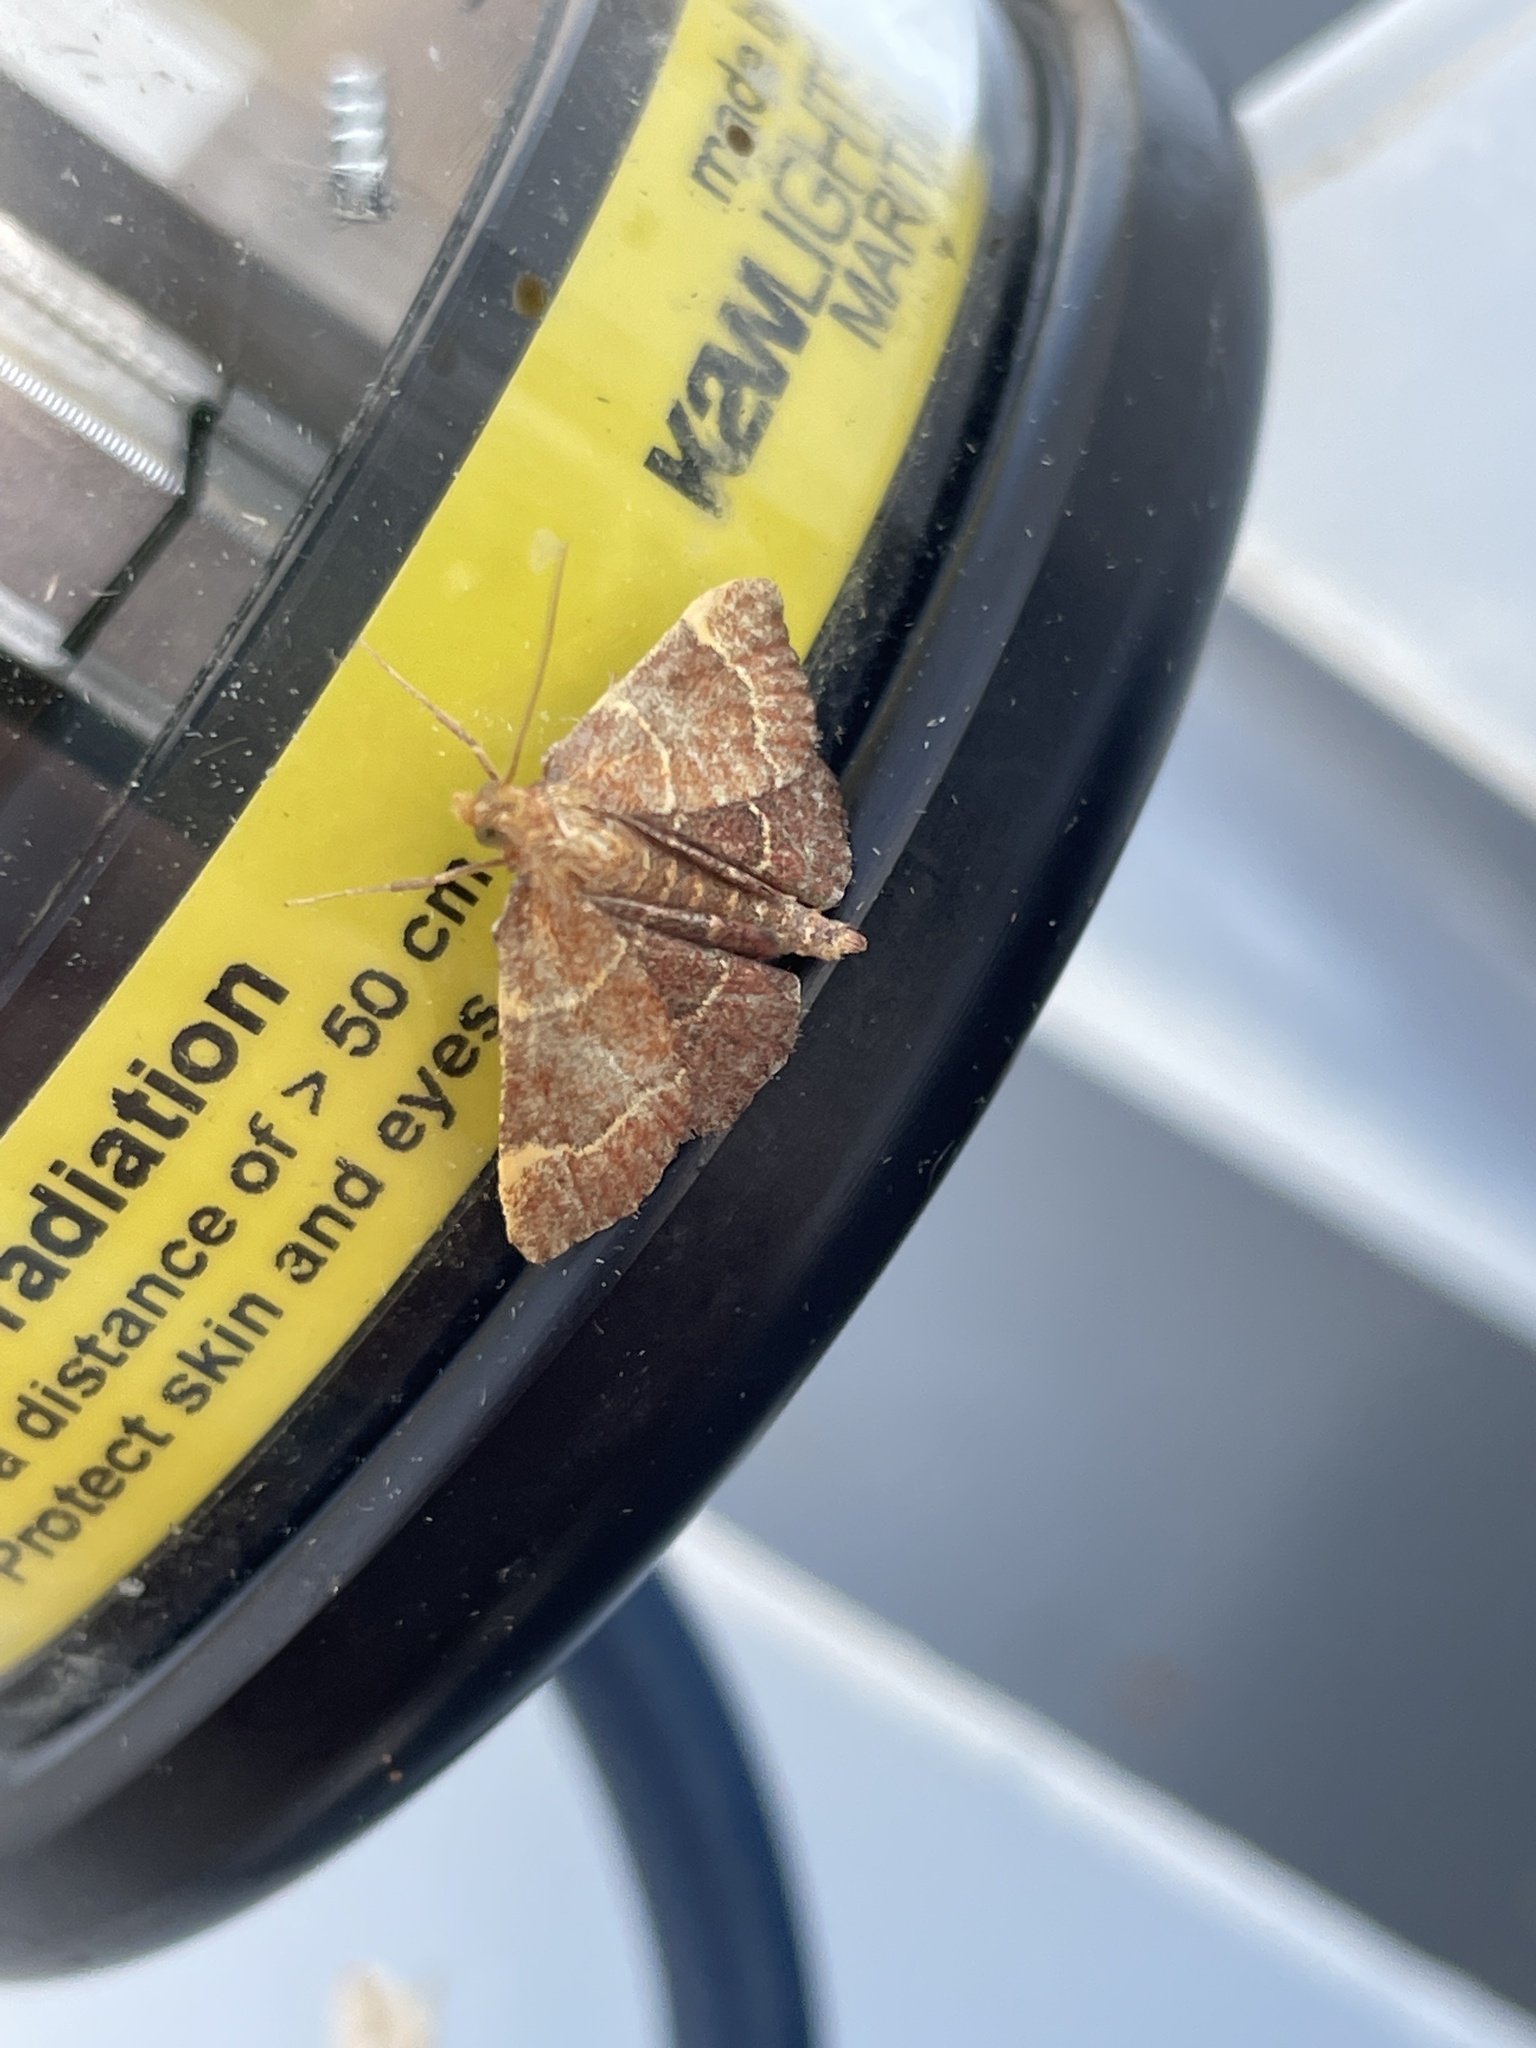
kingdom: Animalia
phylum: Arthropoda
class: Insecta
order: Lepidoptera
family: Pyralidae
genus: Herculia
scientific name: Herculia rubidalis
